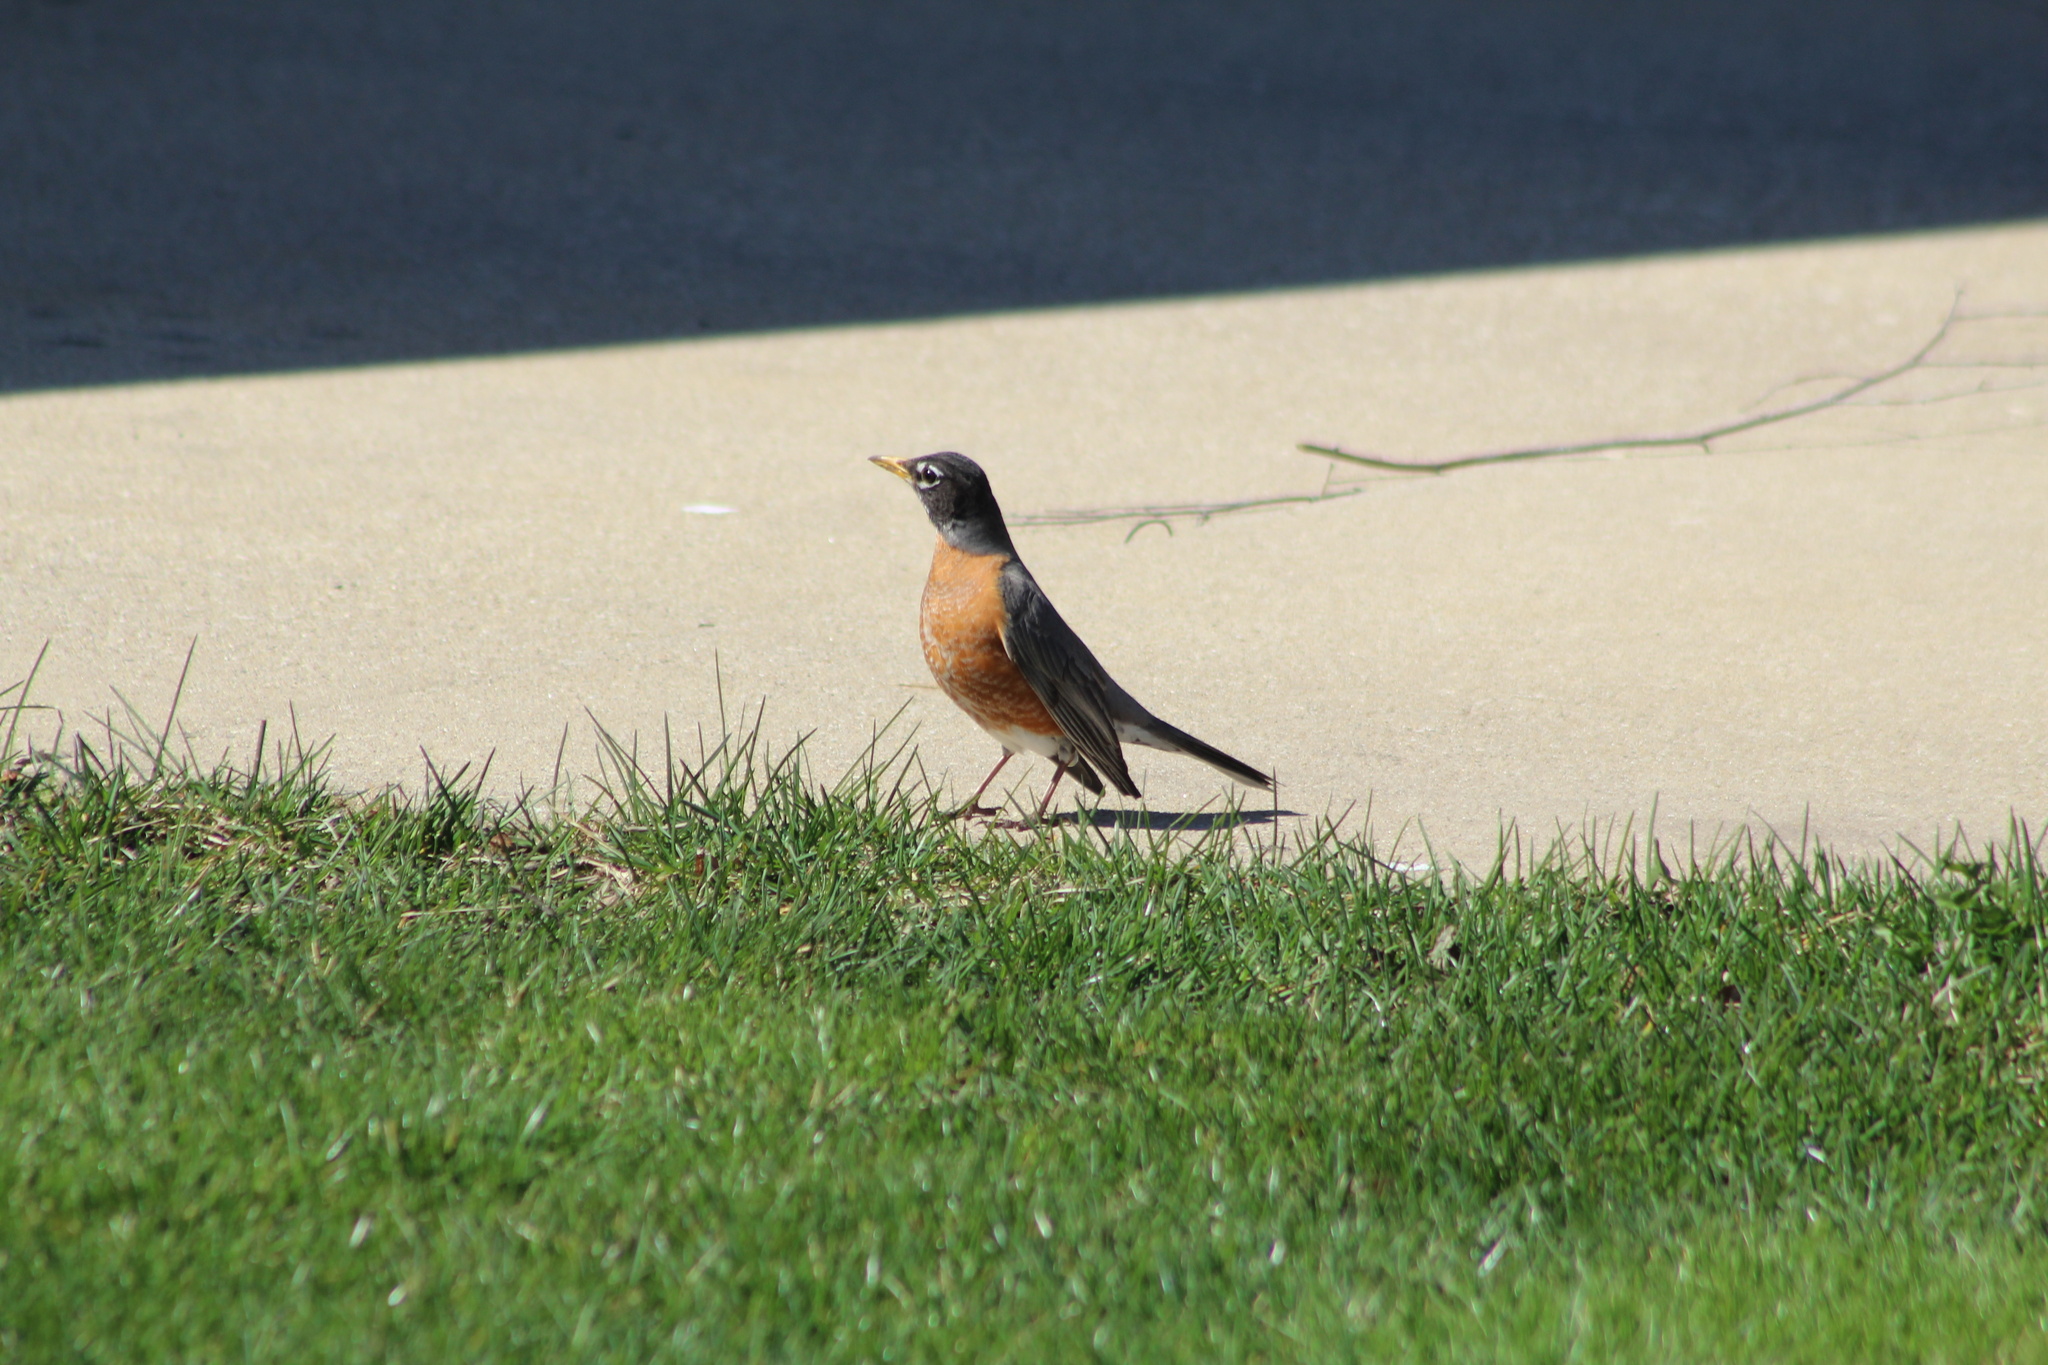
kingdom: Animalia
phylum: Chordata
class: Aves
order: Passeriformes
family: Turdidae
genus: Turdus
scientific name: Turdus migratorius
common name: American robin
